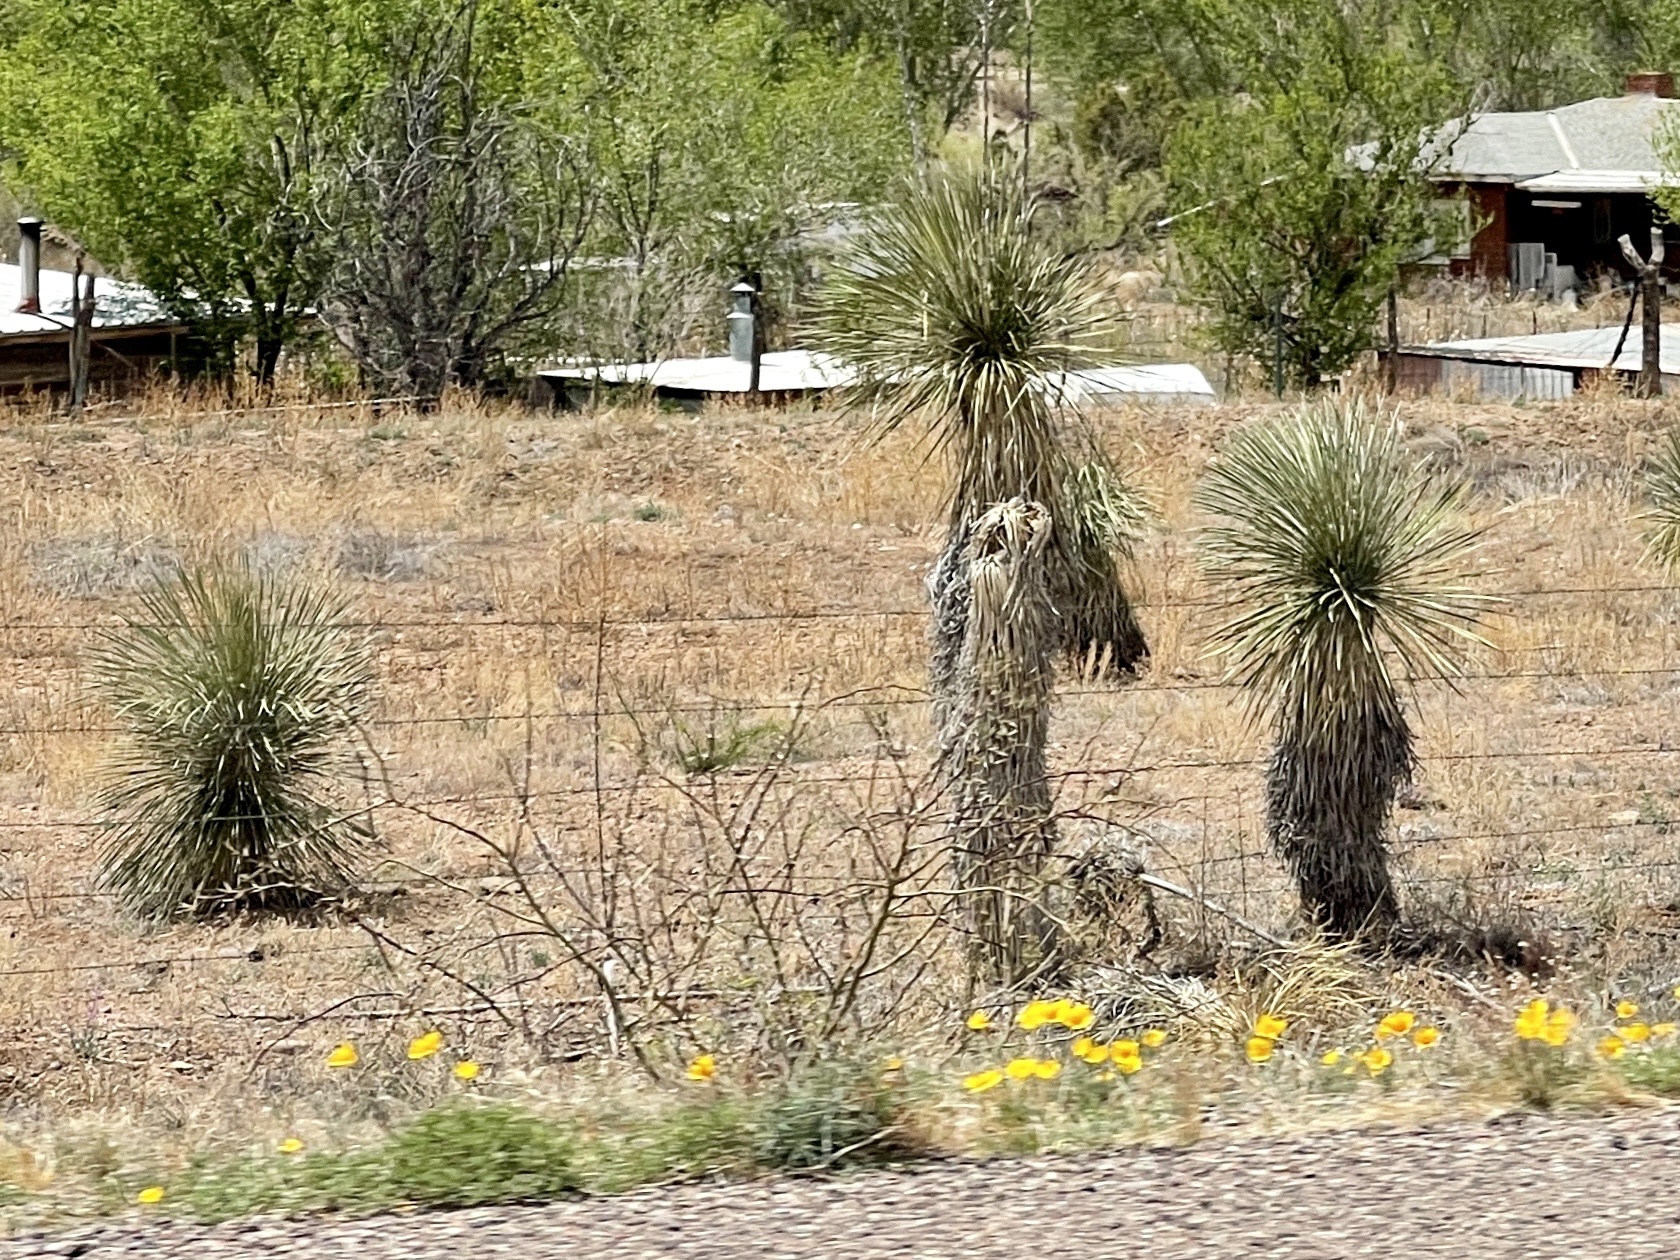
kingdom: Plantae
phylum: Tracheophyta
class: Liliopsida
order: Asparagales
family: Asparagaceae
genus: Yucca
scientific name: Yucca elata
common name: Palmella
